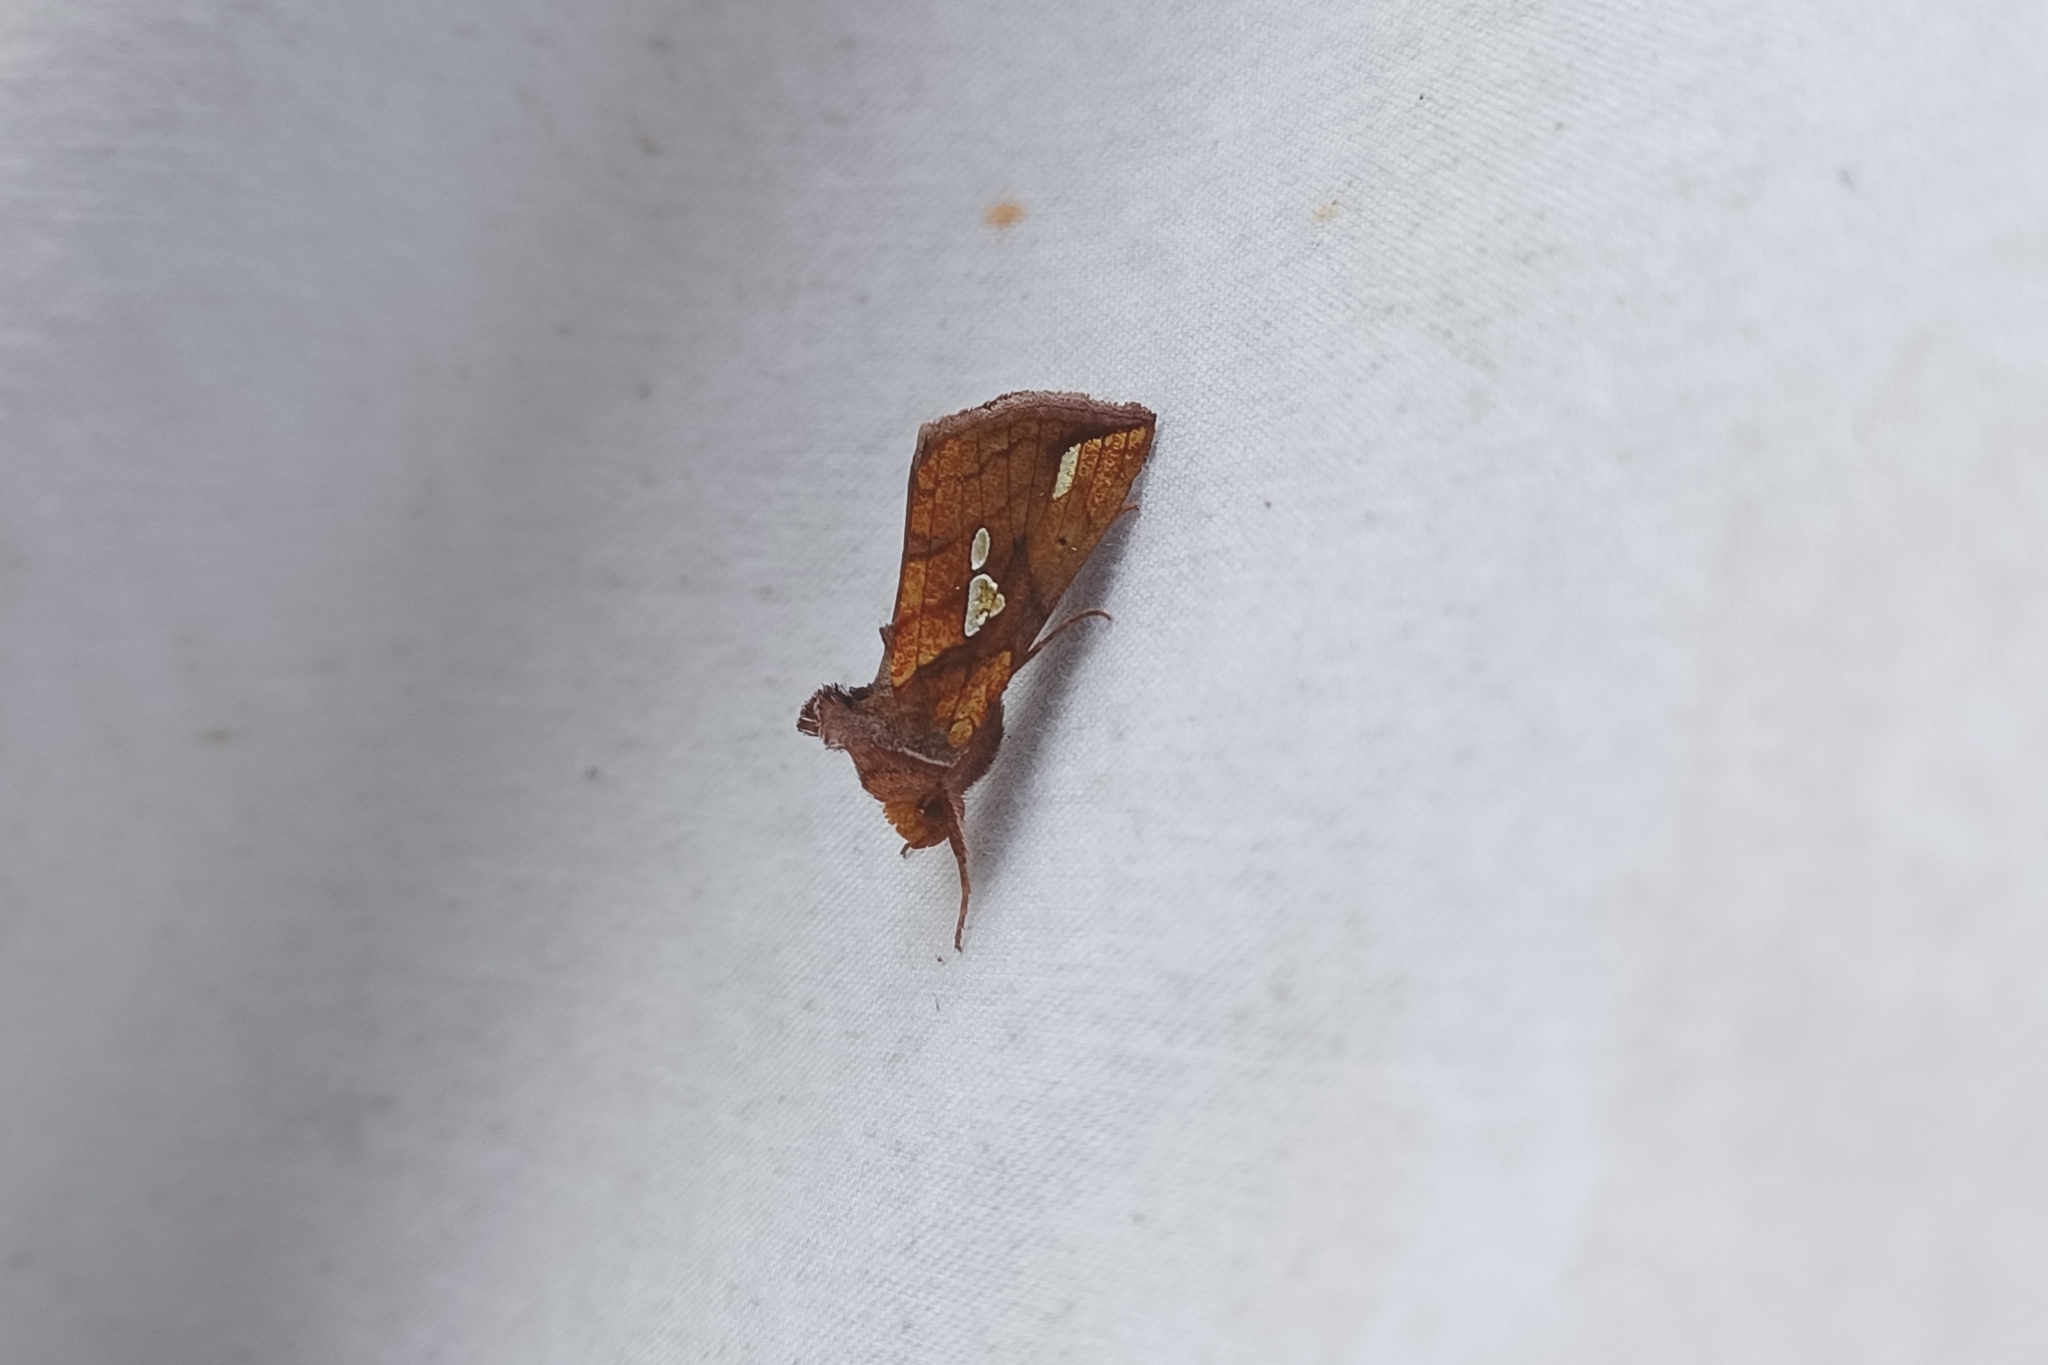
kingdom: Animalia
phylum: Arthropoda
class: Insecta
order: Lepidoptera
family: Noctuidae
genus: Plusia
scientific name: Plusia putnami
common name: Lempke's gold spot
